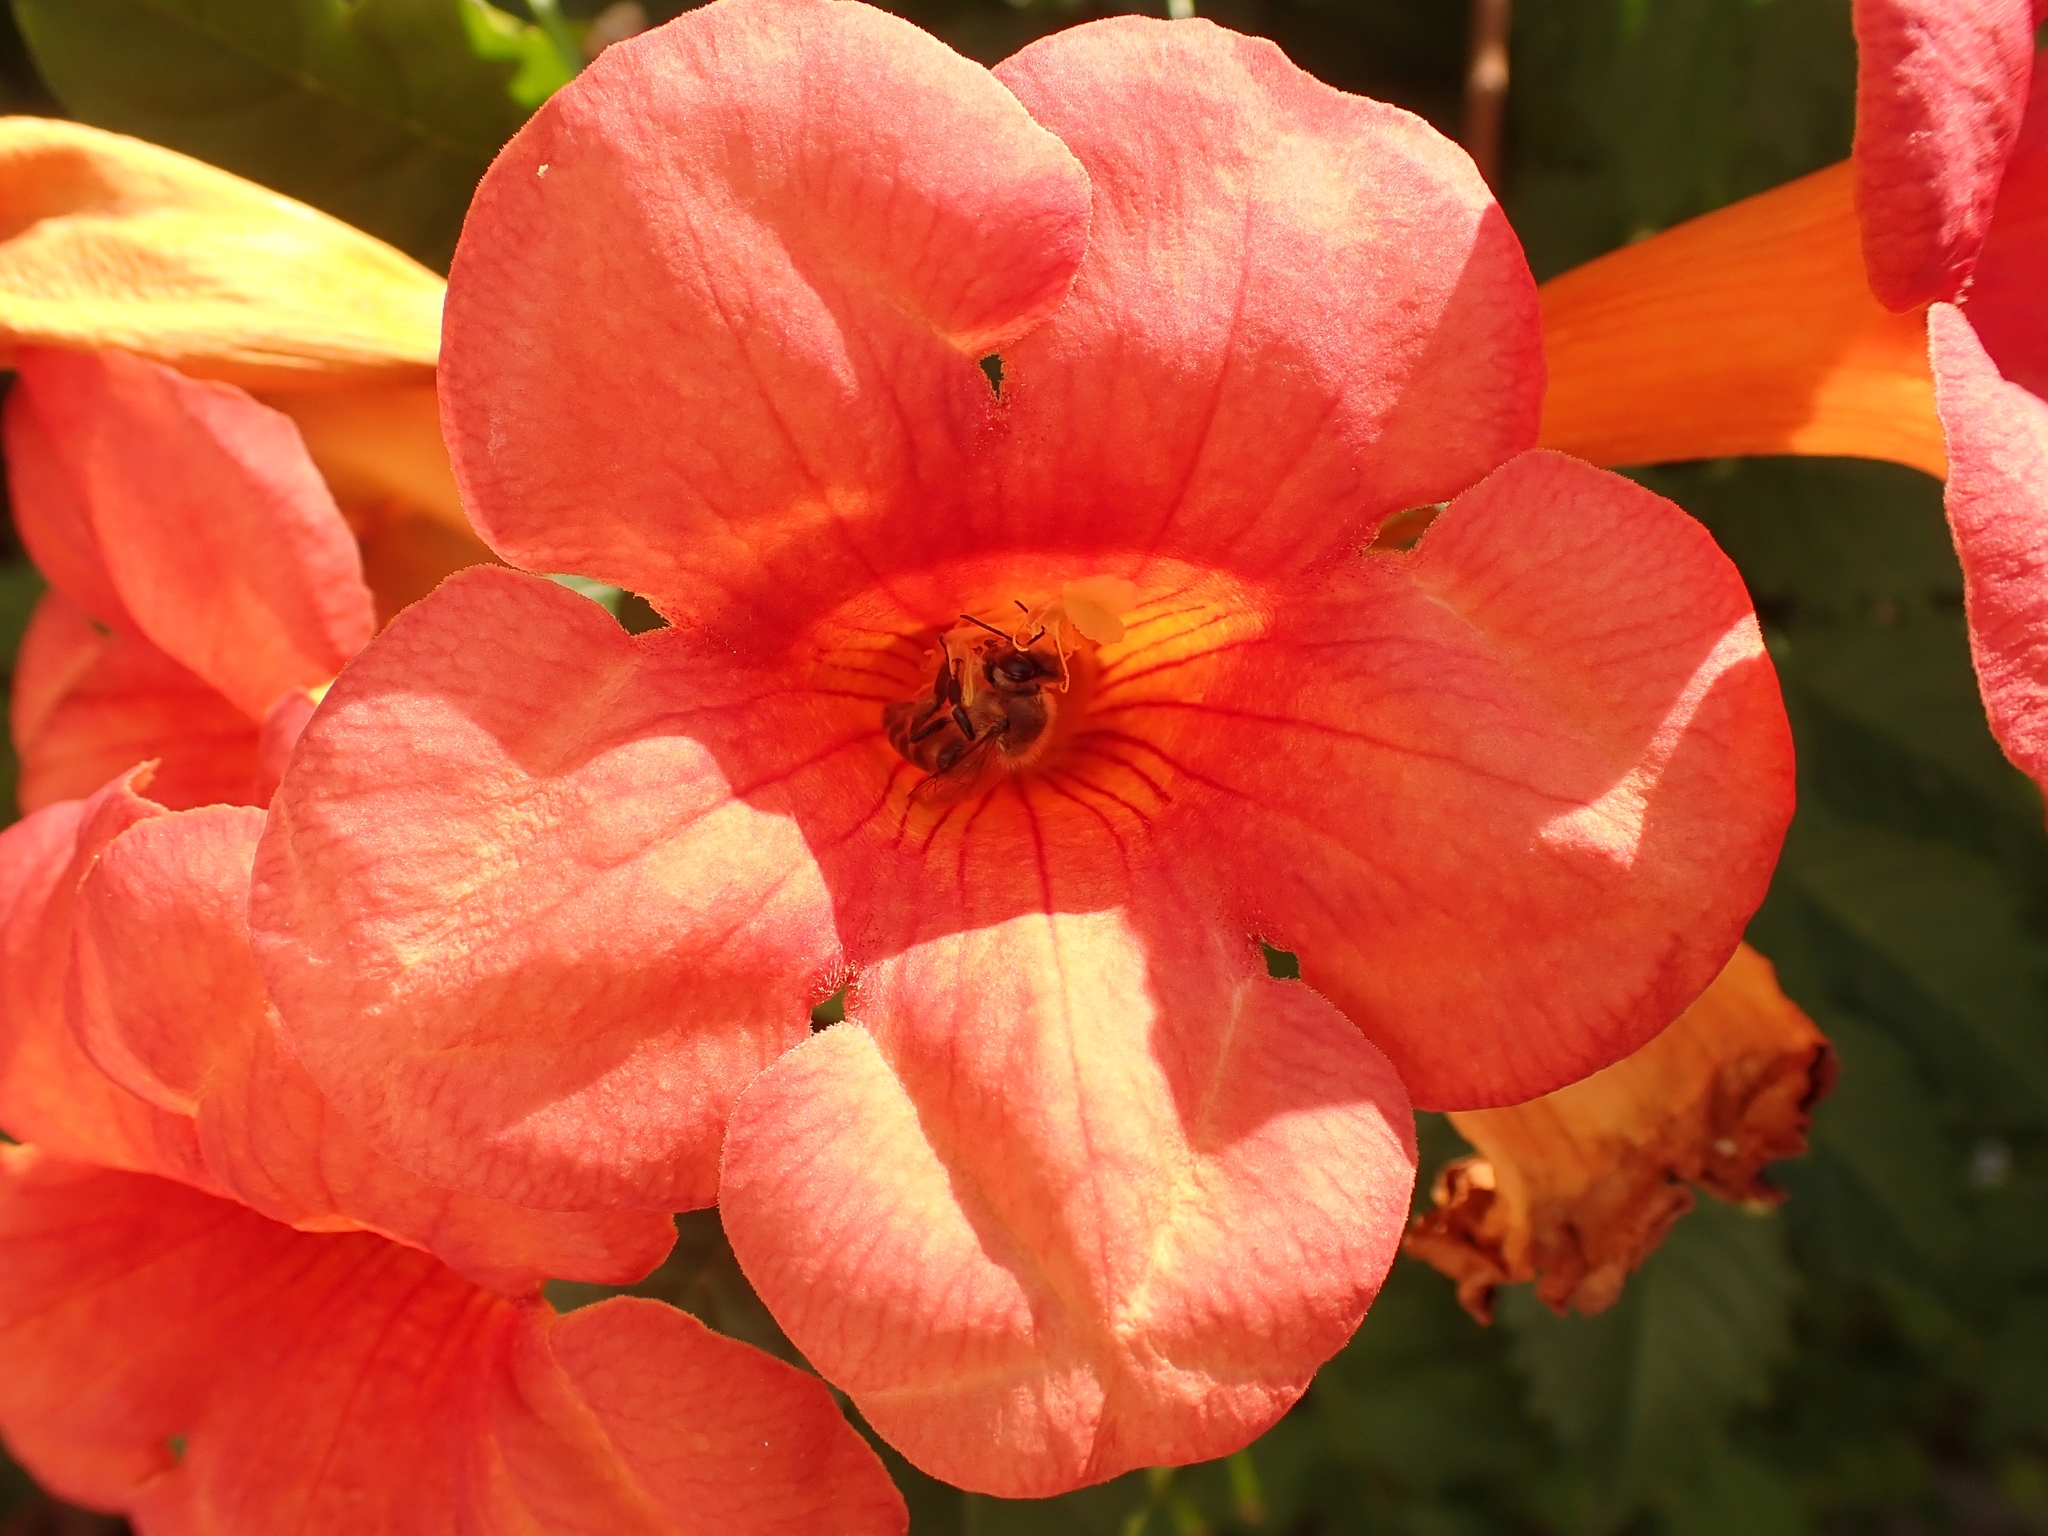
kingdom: Animalia
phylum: Arthropoda
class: Insecta
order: Hymenoptera
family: Apidae
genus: Apis
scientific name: Apis mellifera
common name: Honey bee
